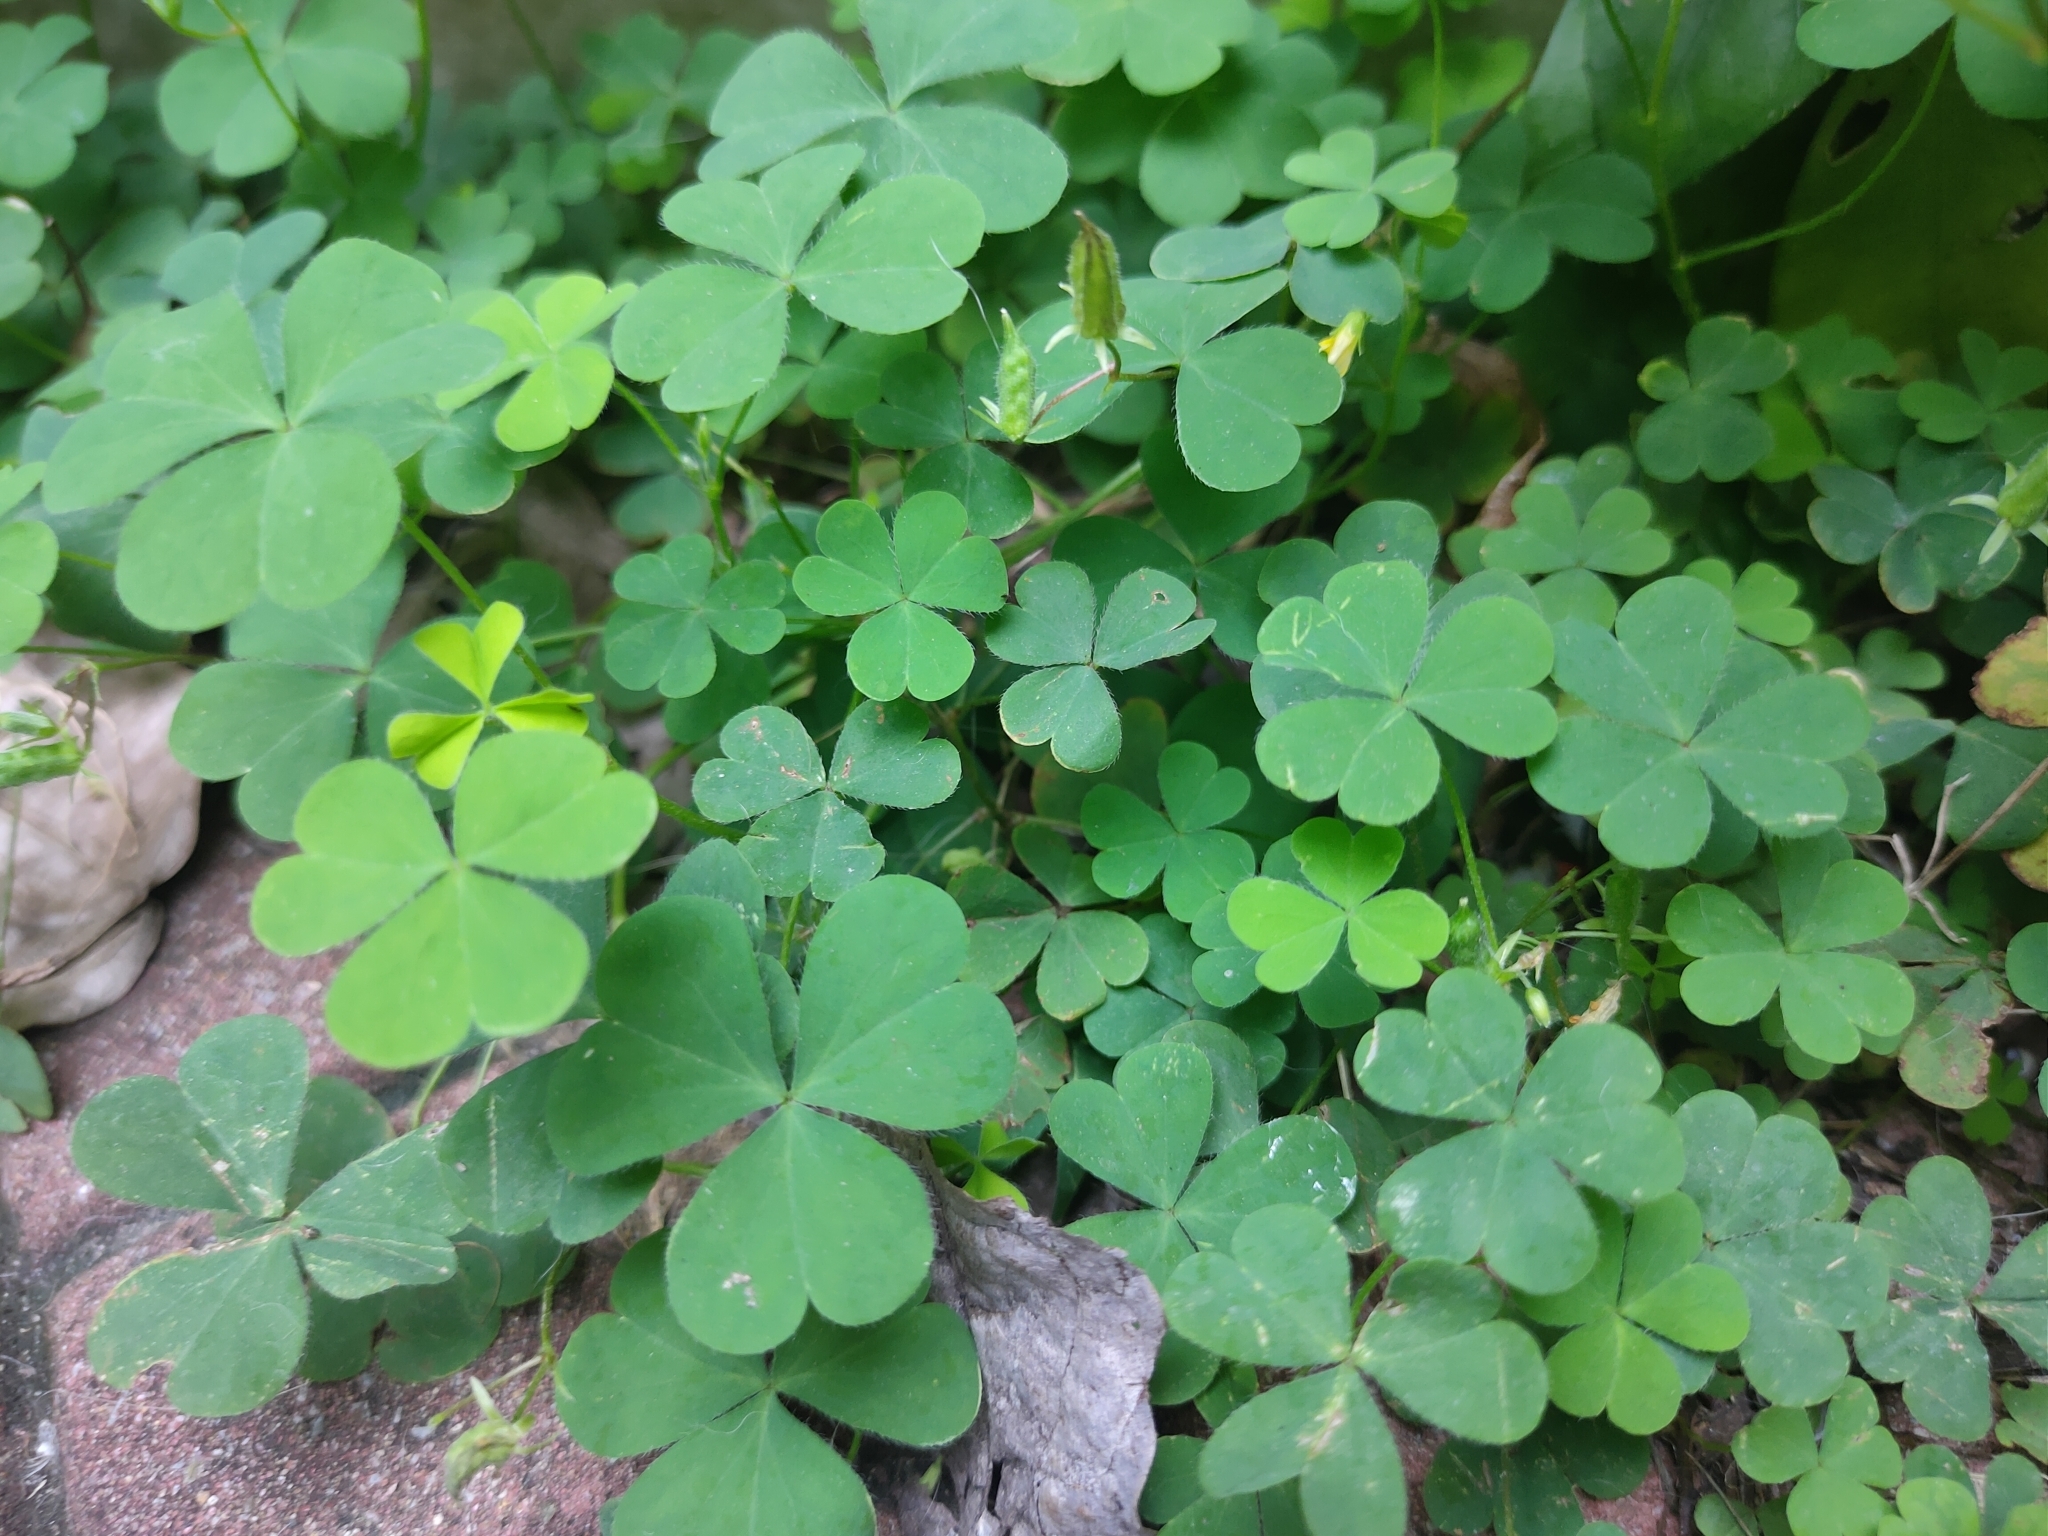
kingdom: Plantae
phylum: Tracheophyta
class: Magnoliopsida
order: Oxalidales
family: Oxalidaceae
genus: Oxalis
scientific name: Oxalis corniculata
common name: Procumbent yellow-sorrel
